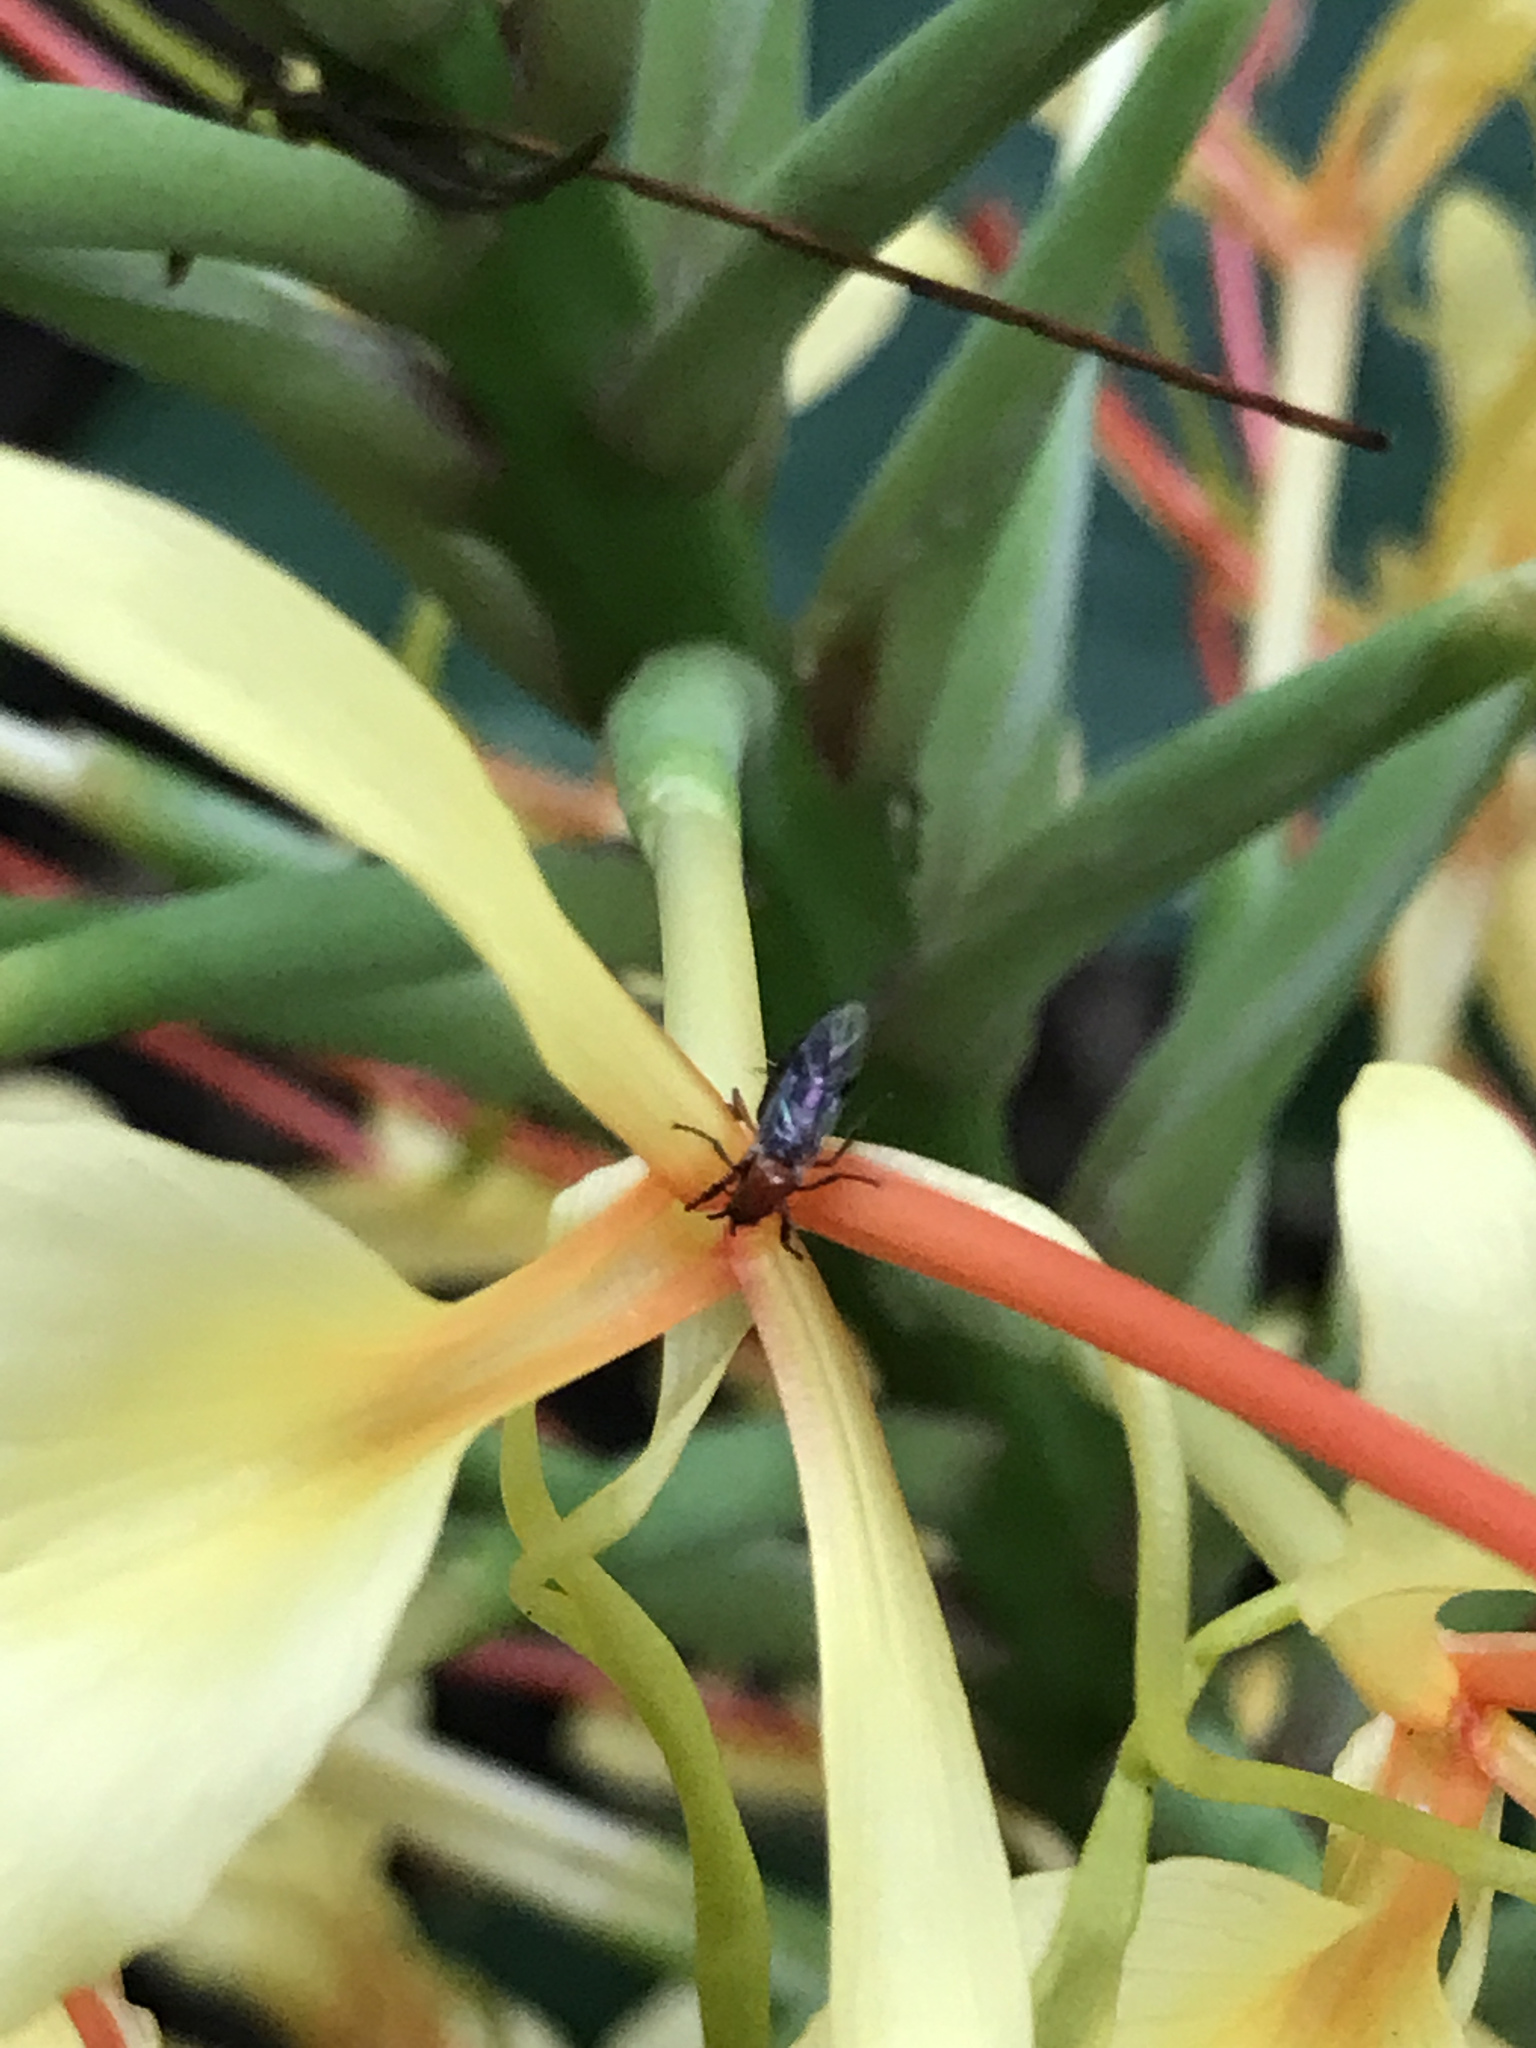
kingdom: Animalia
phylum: Arthropoda
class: Insecta
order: Diptera
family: Bibionidae
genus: Dilophus
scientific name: Dilophus
